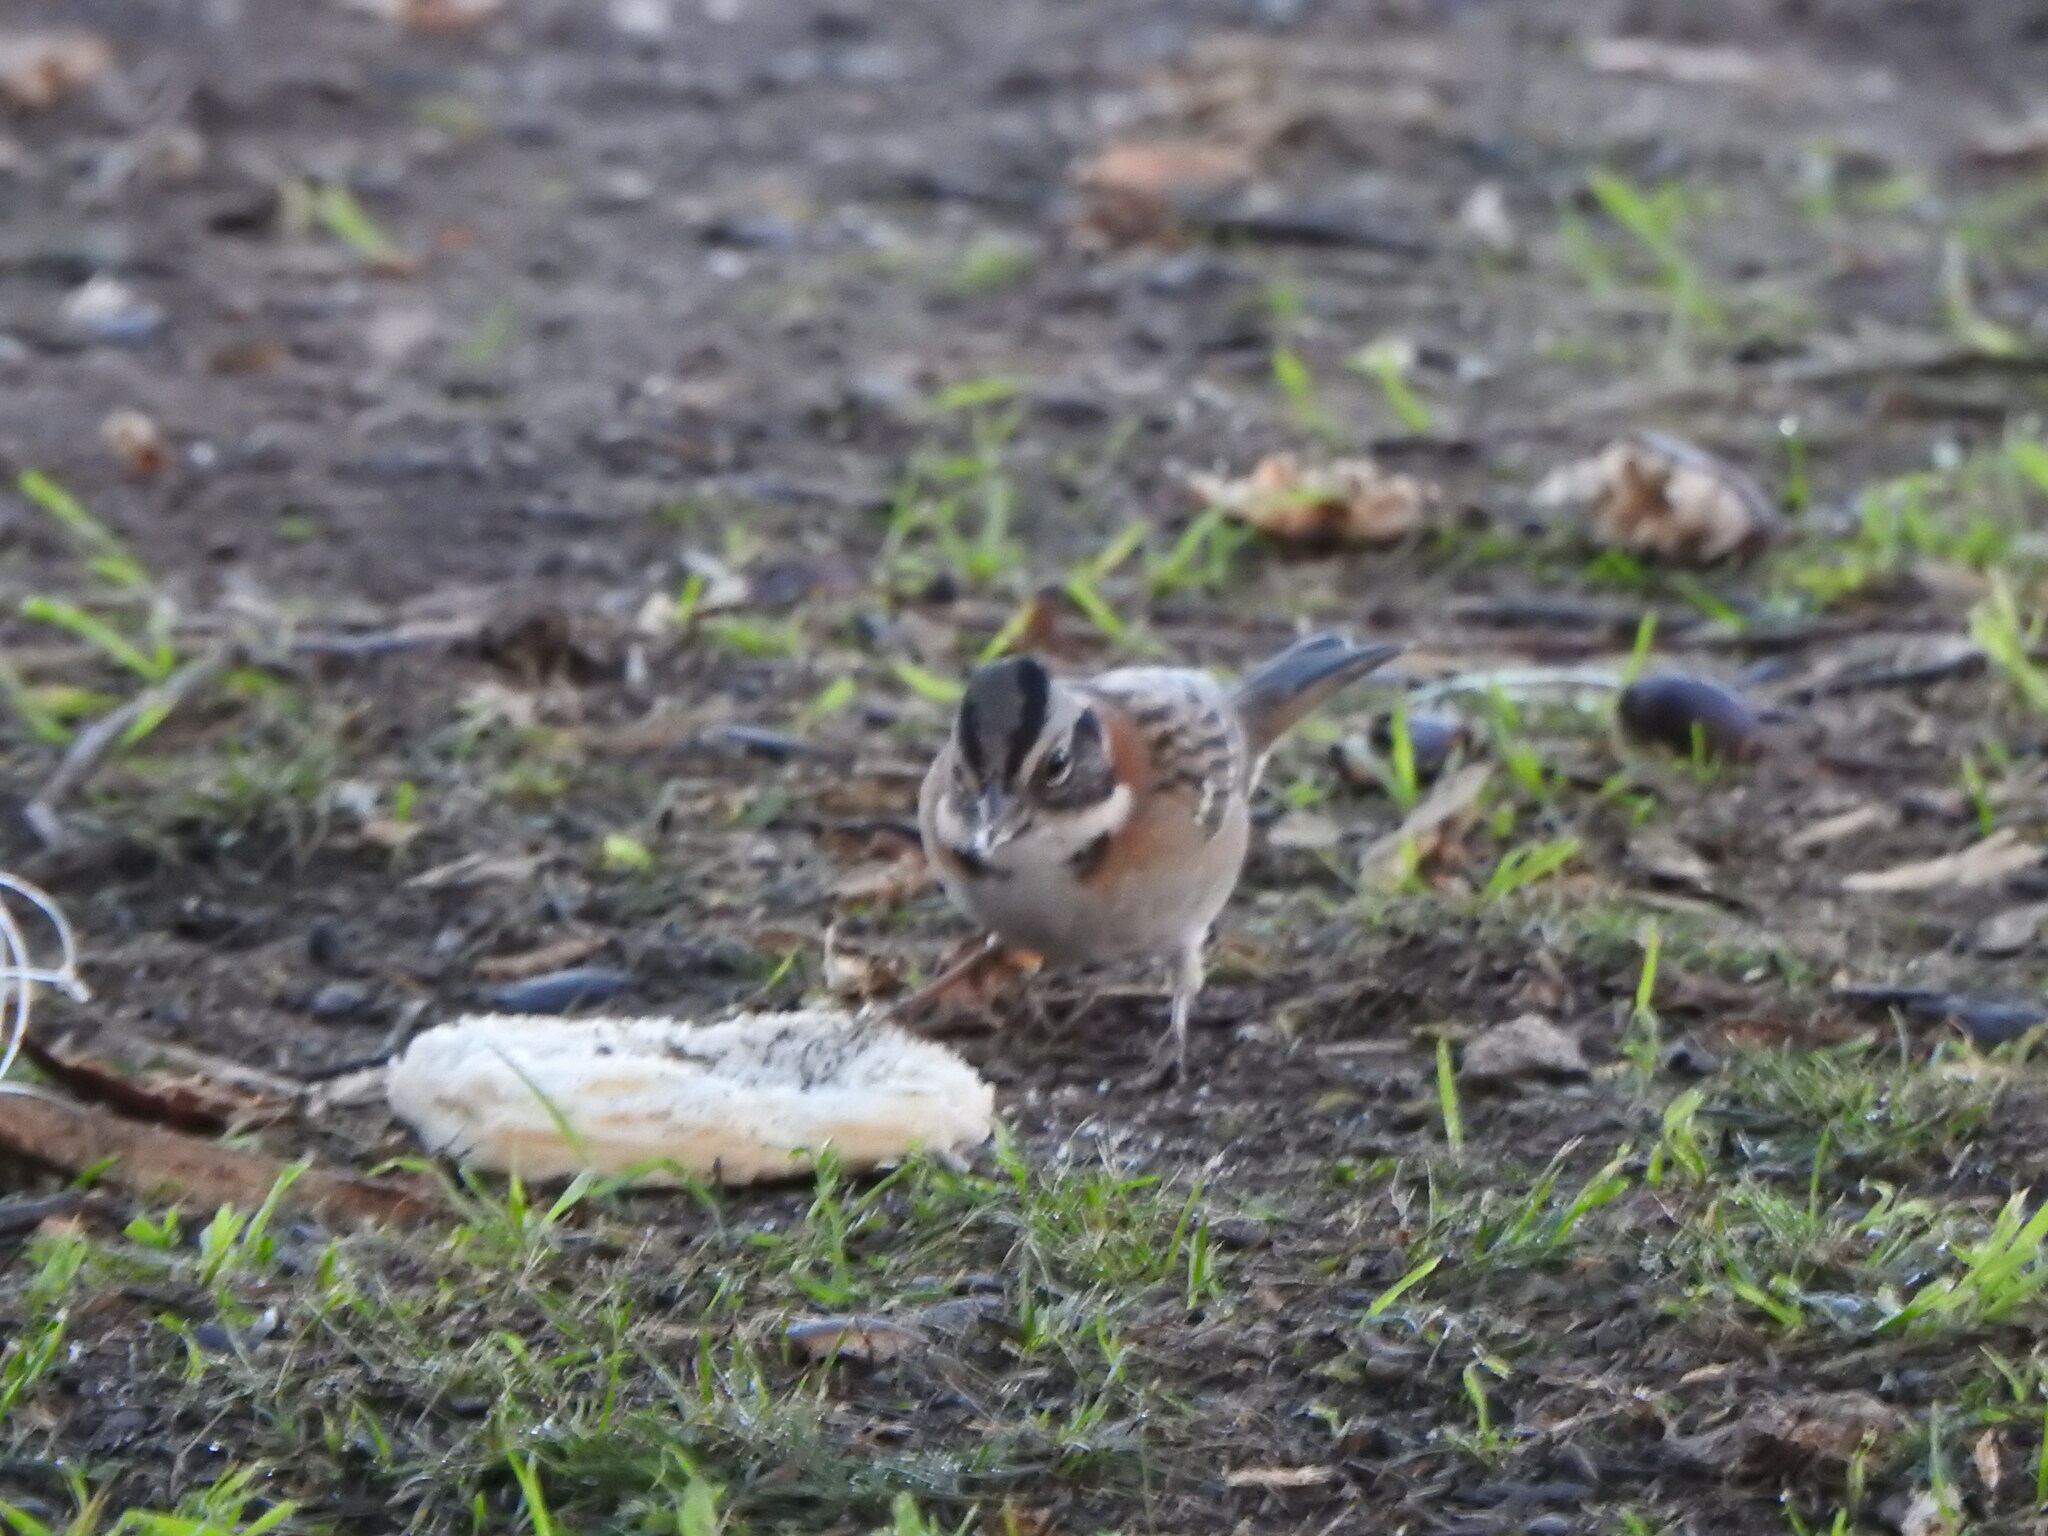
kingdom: Animalia
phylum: Chordata
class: Aves
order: Passeriformes
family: Passerellidae
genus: Zonotrichia
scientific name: Zonotrichia capensis
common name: Rufous-collared sparrow
